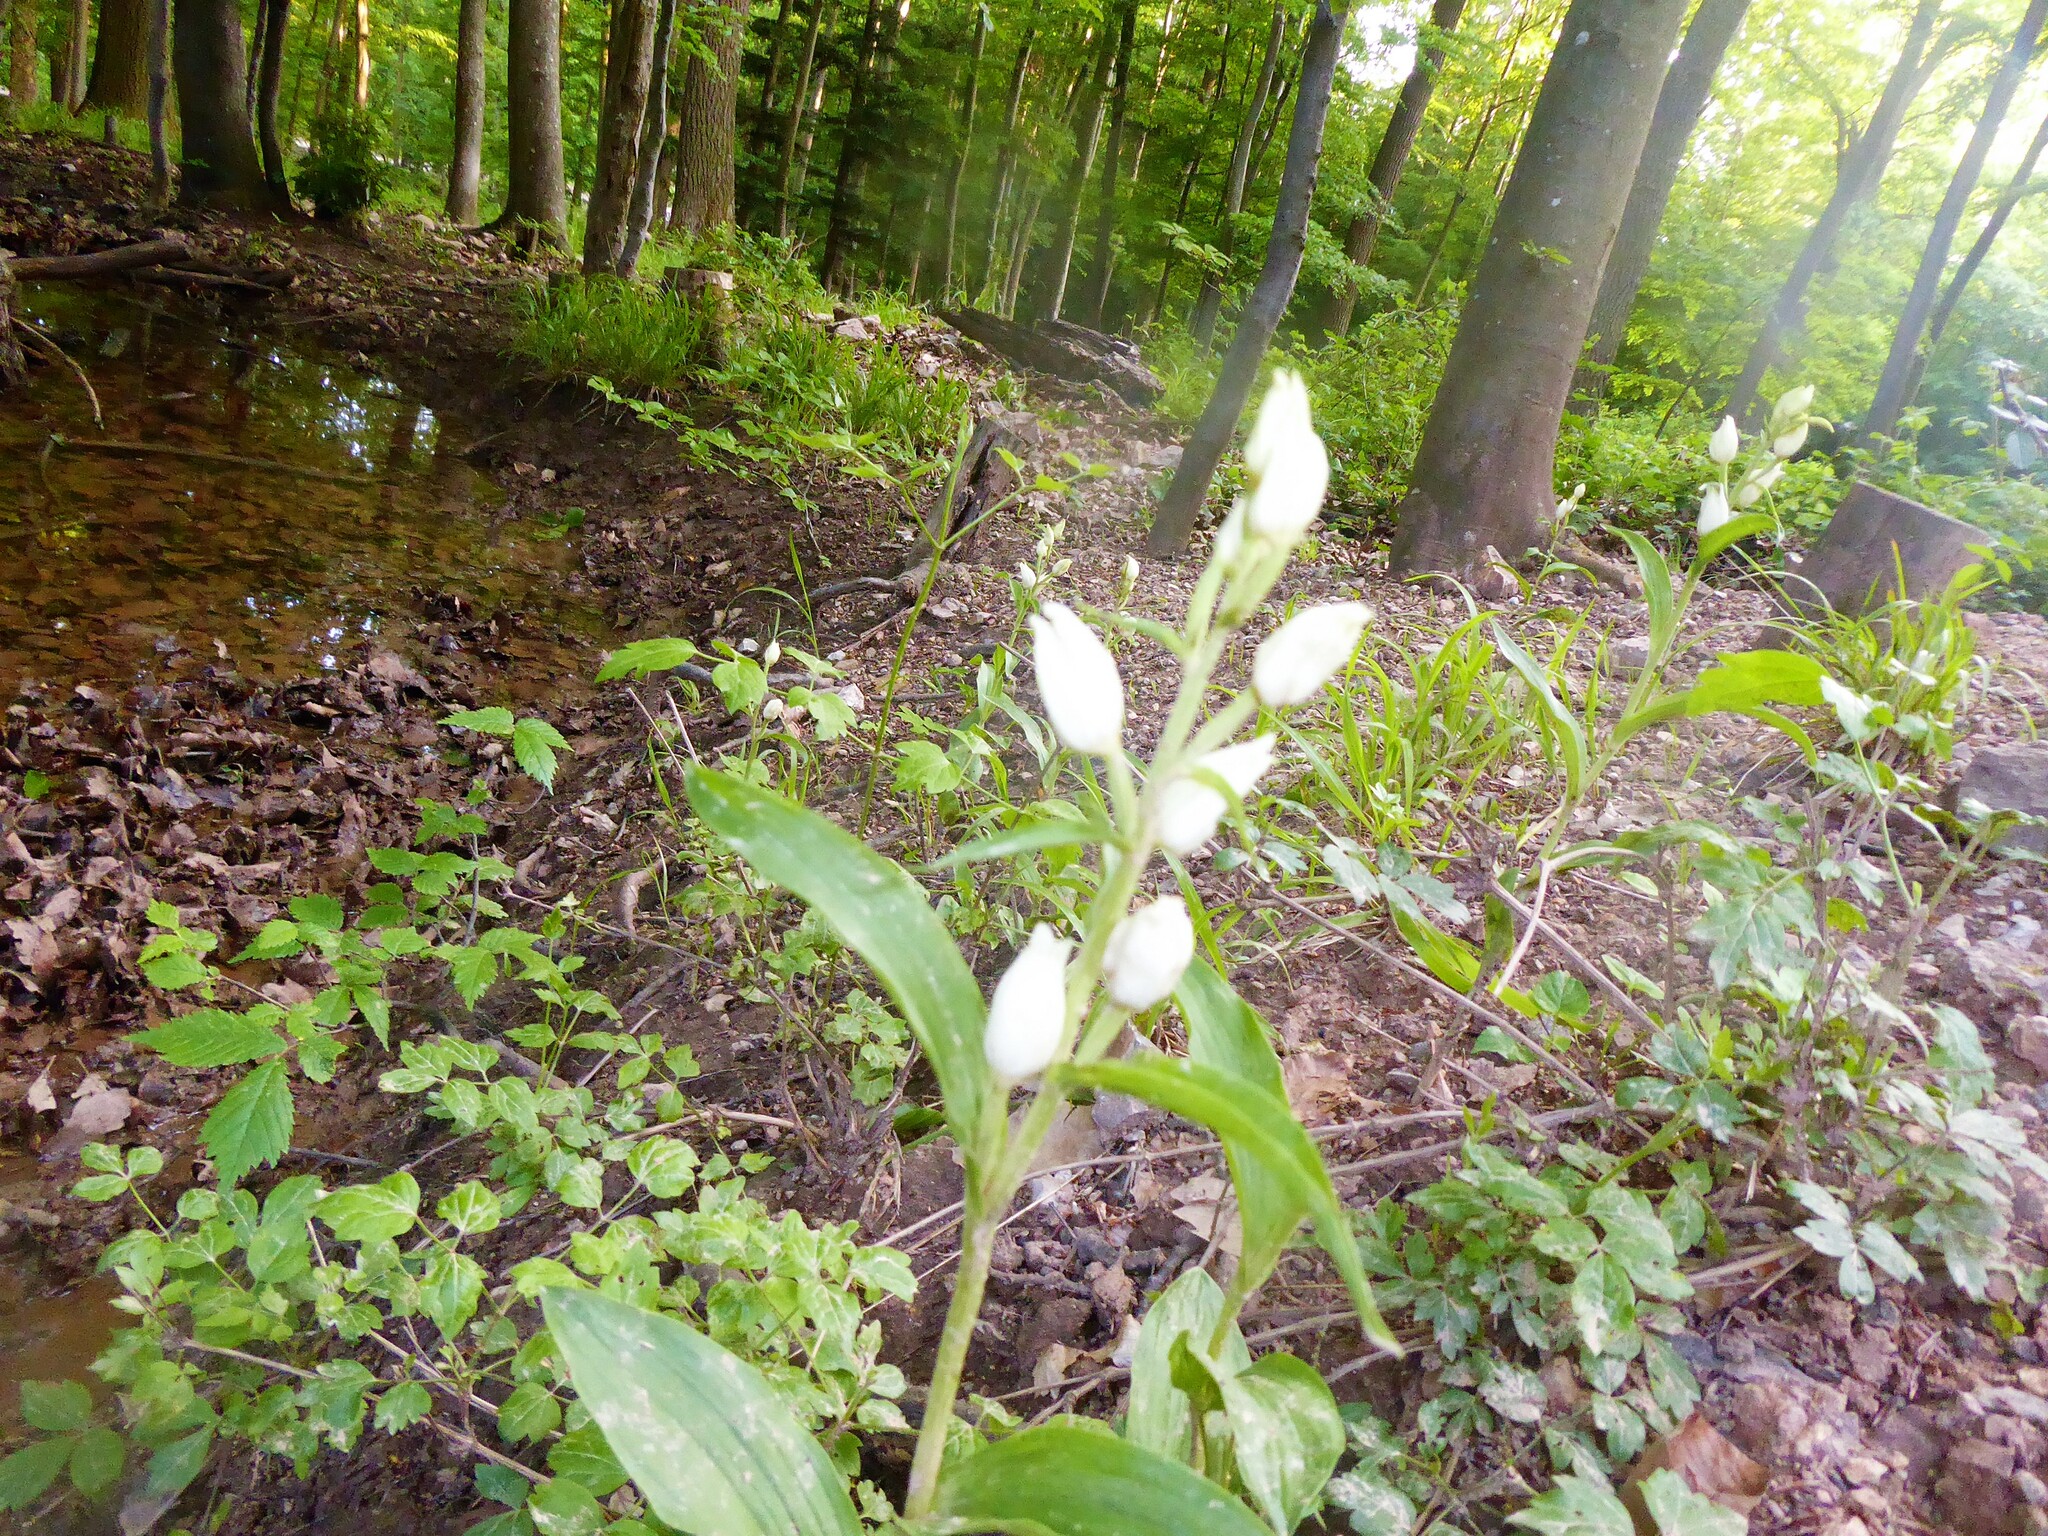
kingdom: Plantae
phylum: Tracheophyta
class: Liliopsida
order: Asparagales
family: Orchidaceae
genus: Cephalanthera
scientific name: Cephalanthera damasonium
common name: White helleborine
